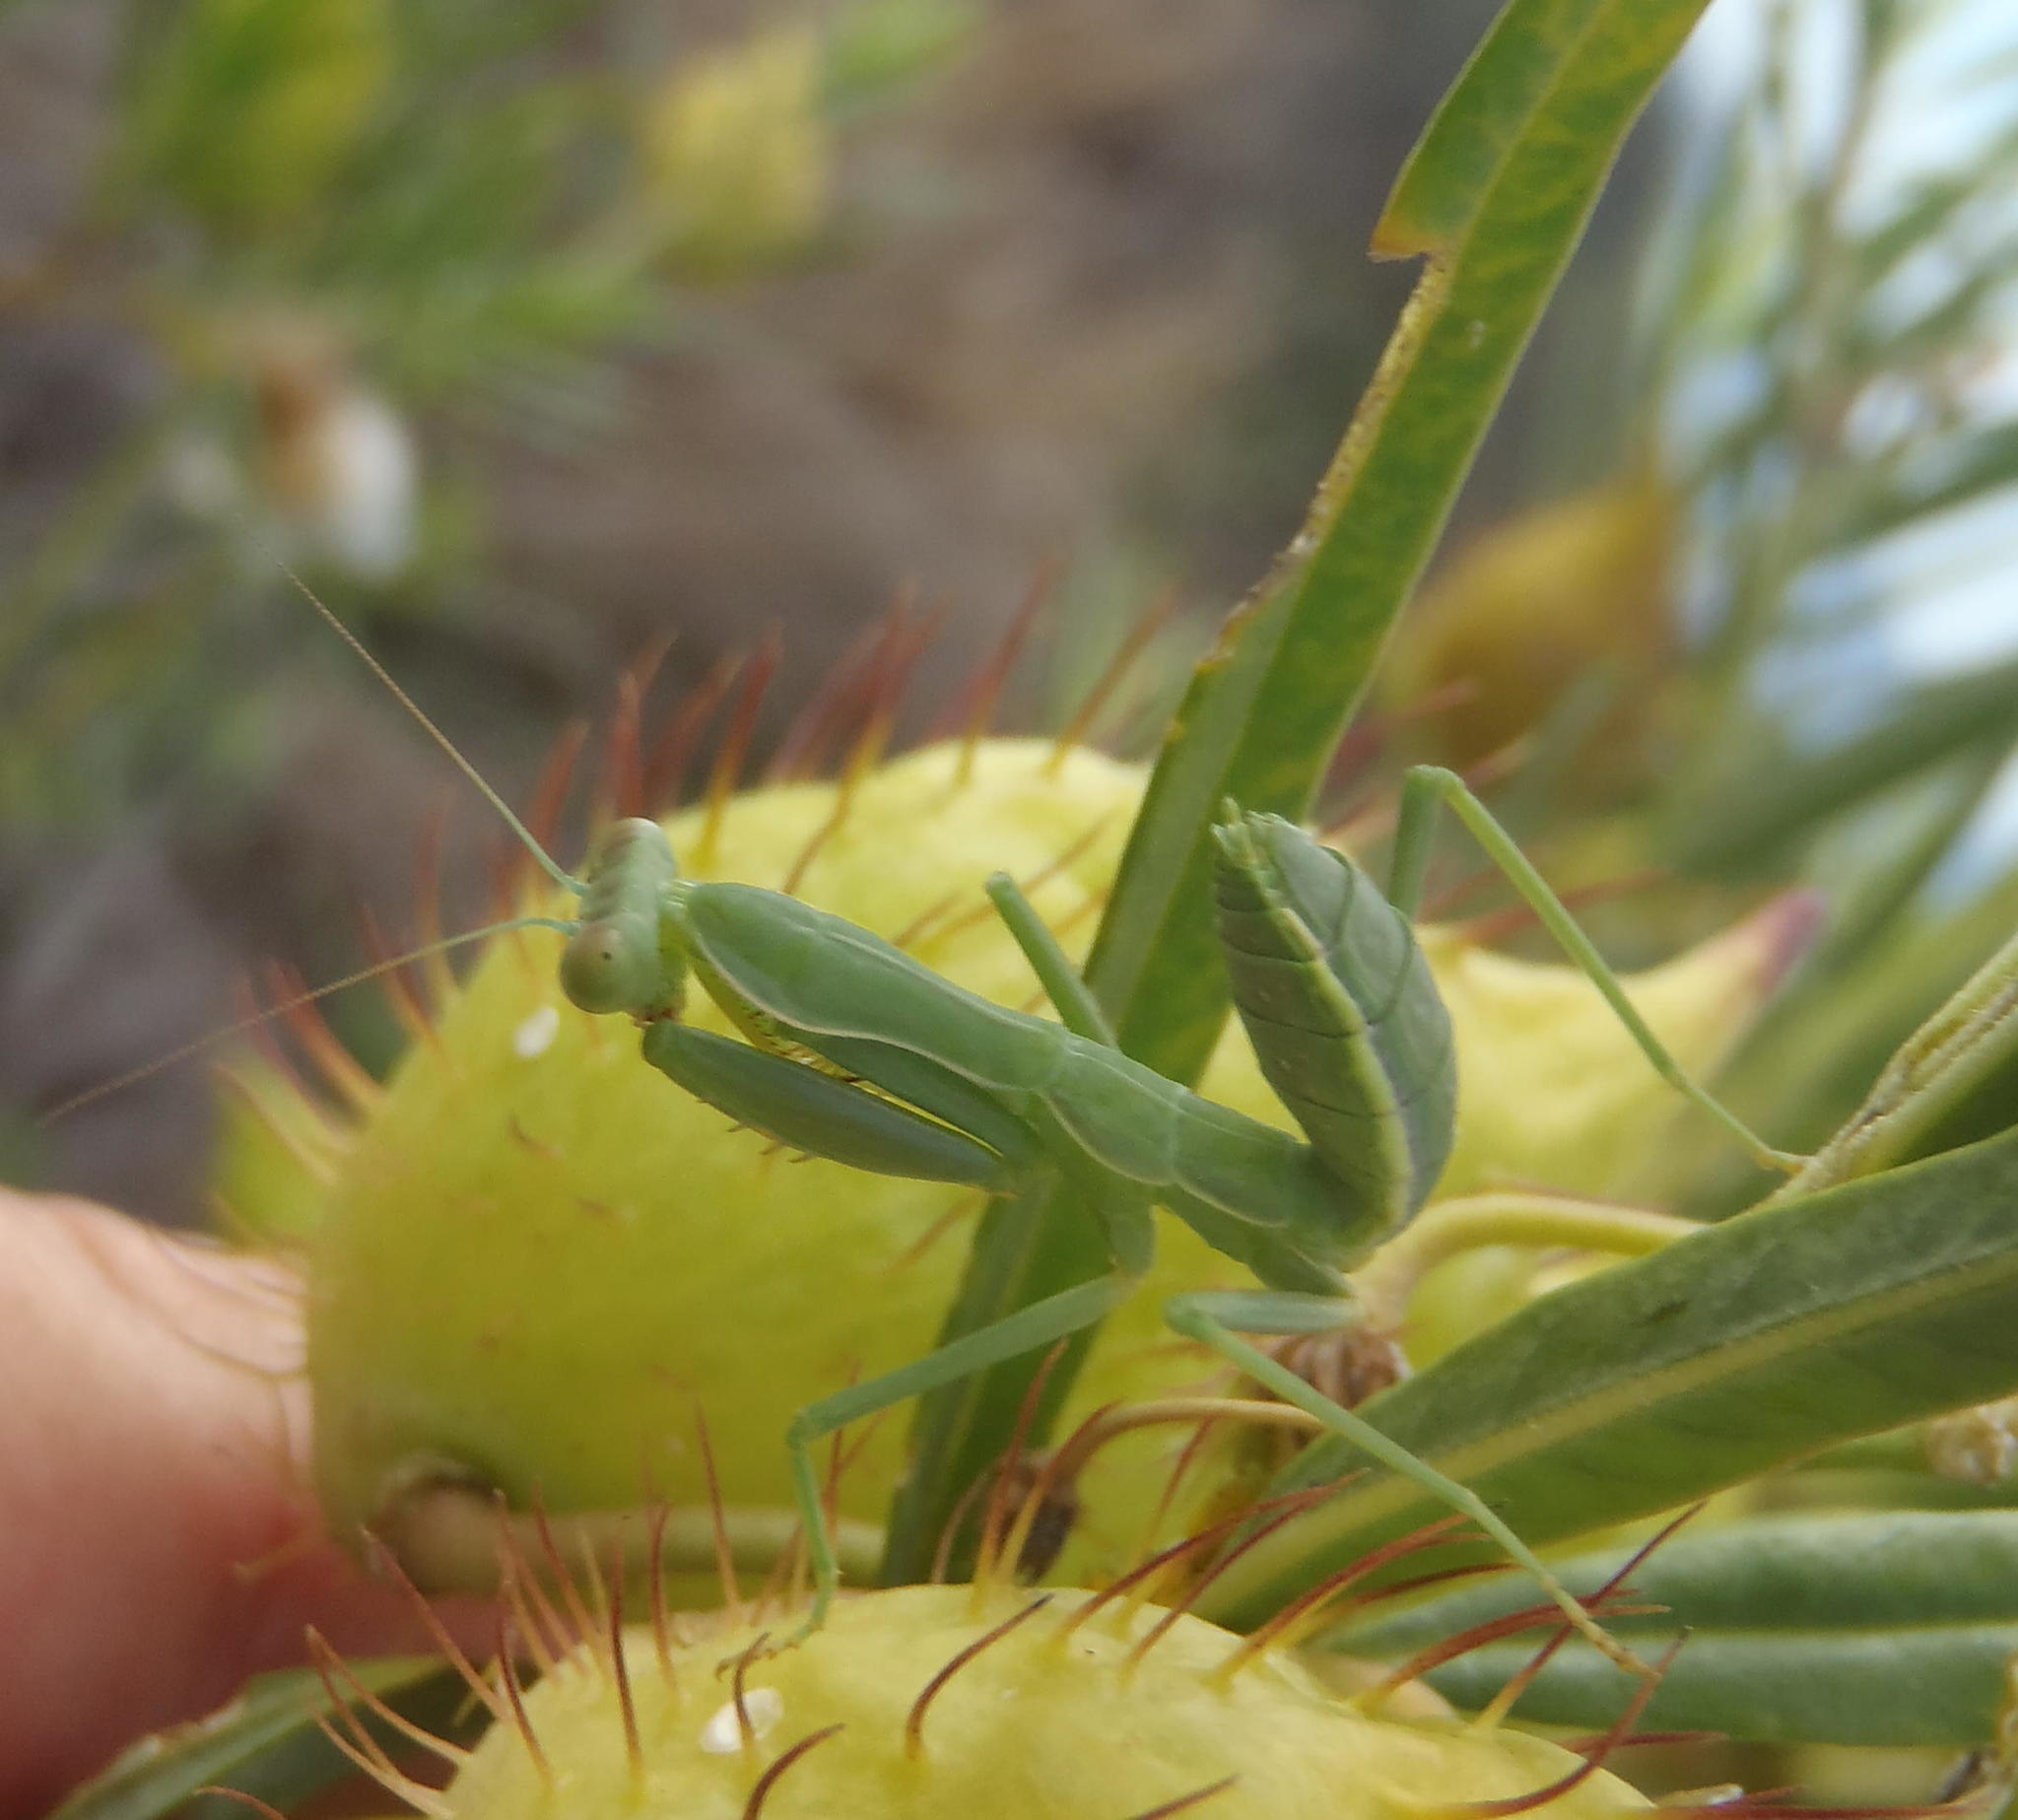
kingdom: Animalia
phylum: Arthropoda
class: Insecta
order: Mantodea
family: Mantidae
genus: Sphodromantis
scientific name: Sphodromantis gastrica
